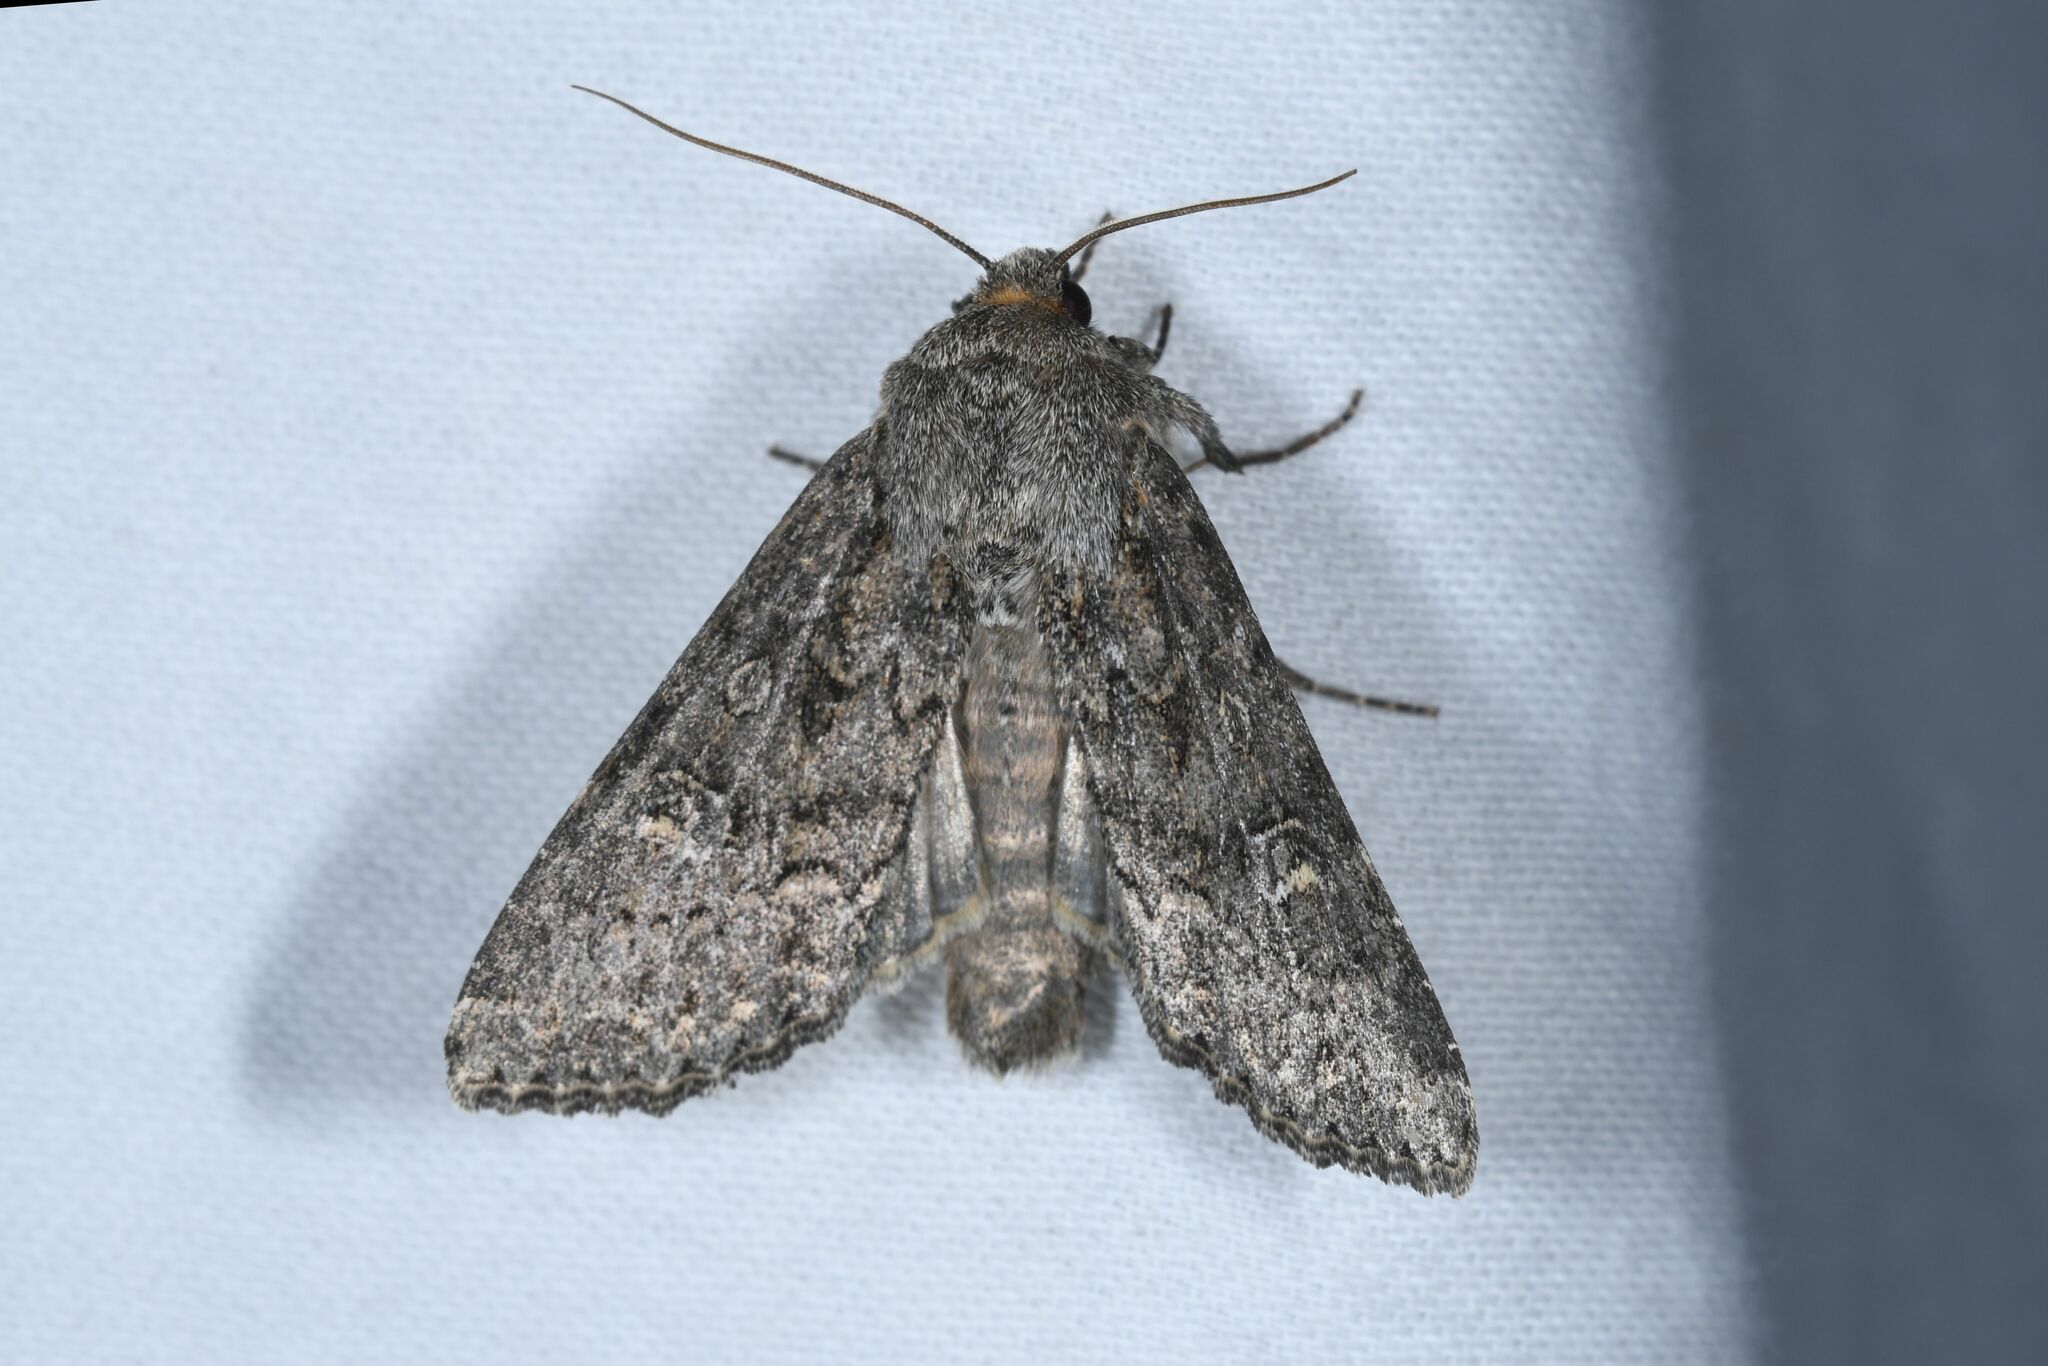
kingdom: Animalia
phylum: Arthropoda
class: Insecta
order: Lepidoptera
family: Noctuidae
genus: Apamea
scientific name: Apamea zeta
